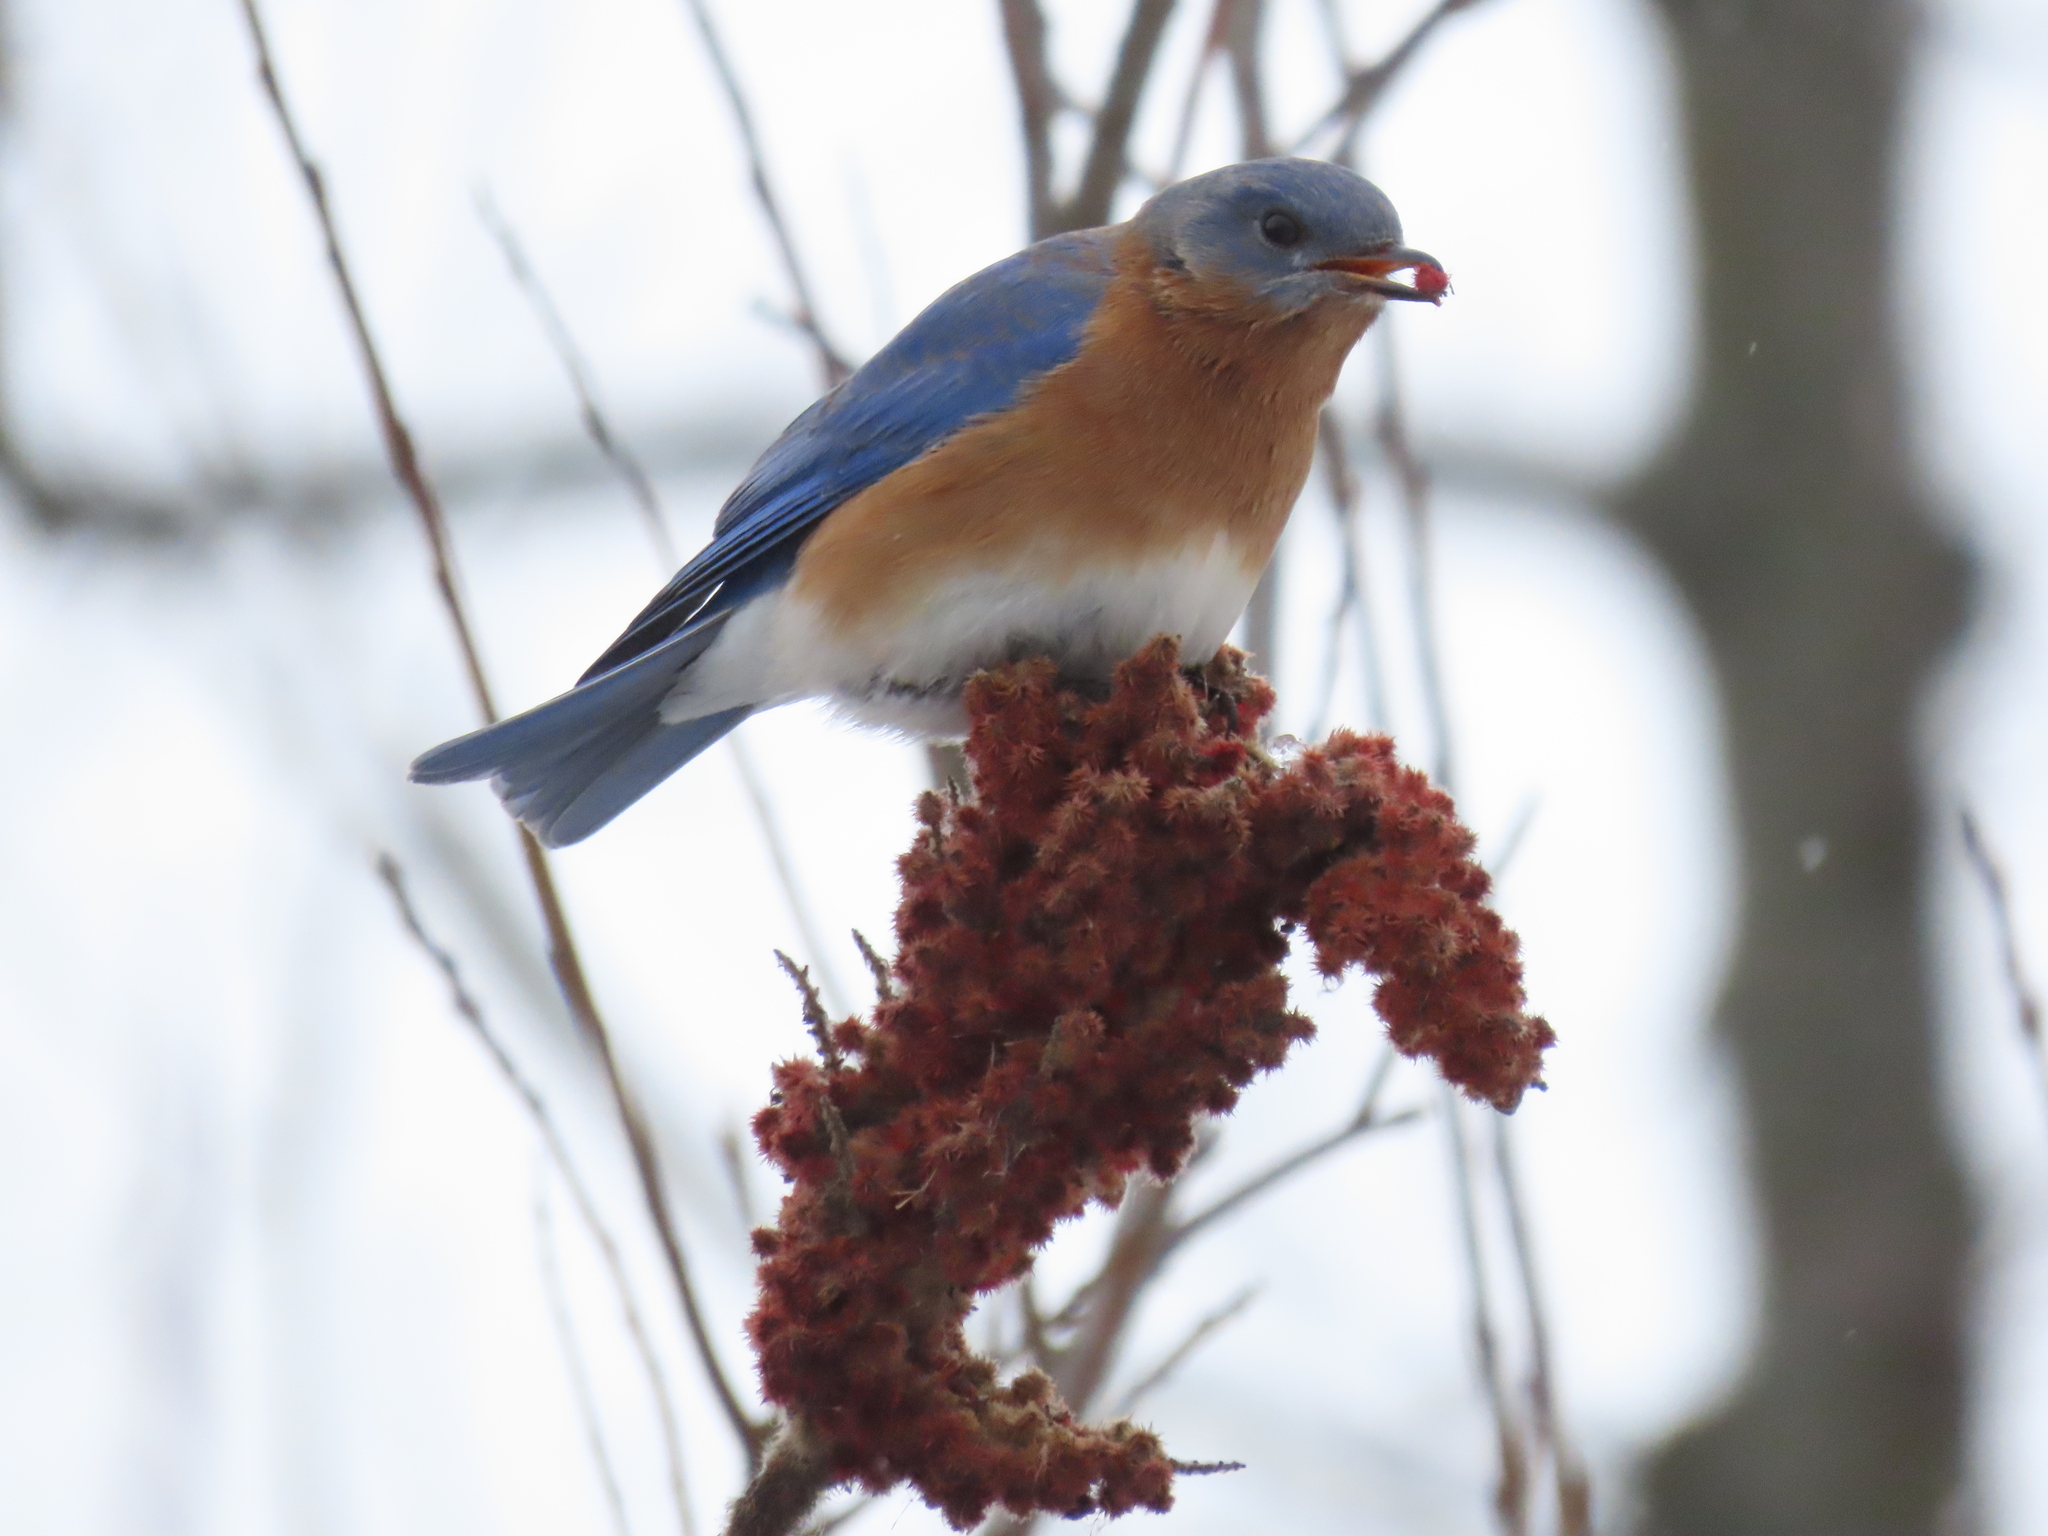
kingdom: Animalia
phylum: Chordata
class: Aves
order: Passeriformes
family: Turdidae
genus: Sialia
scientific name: Sialia sialis
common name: Eastern bluebird
